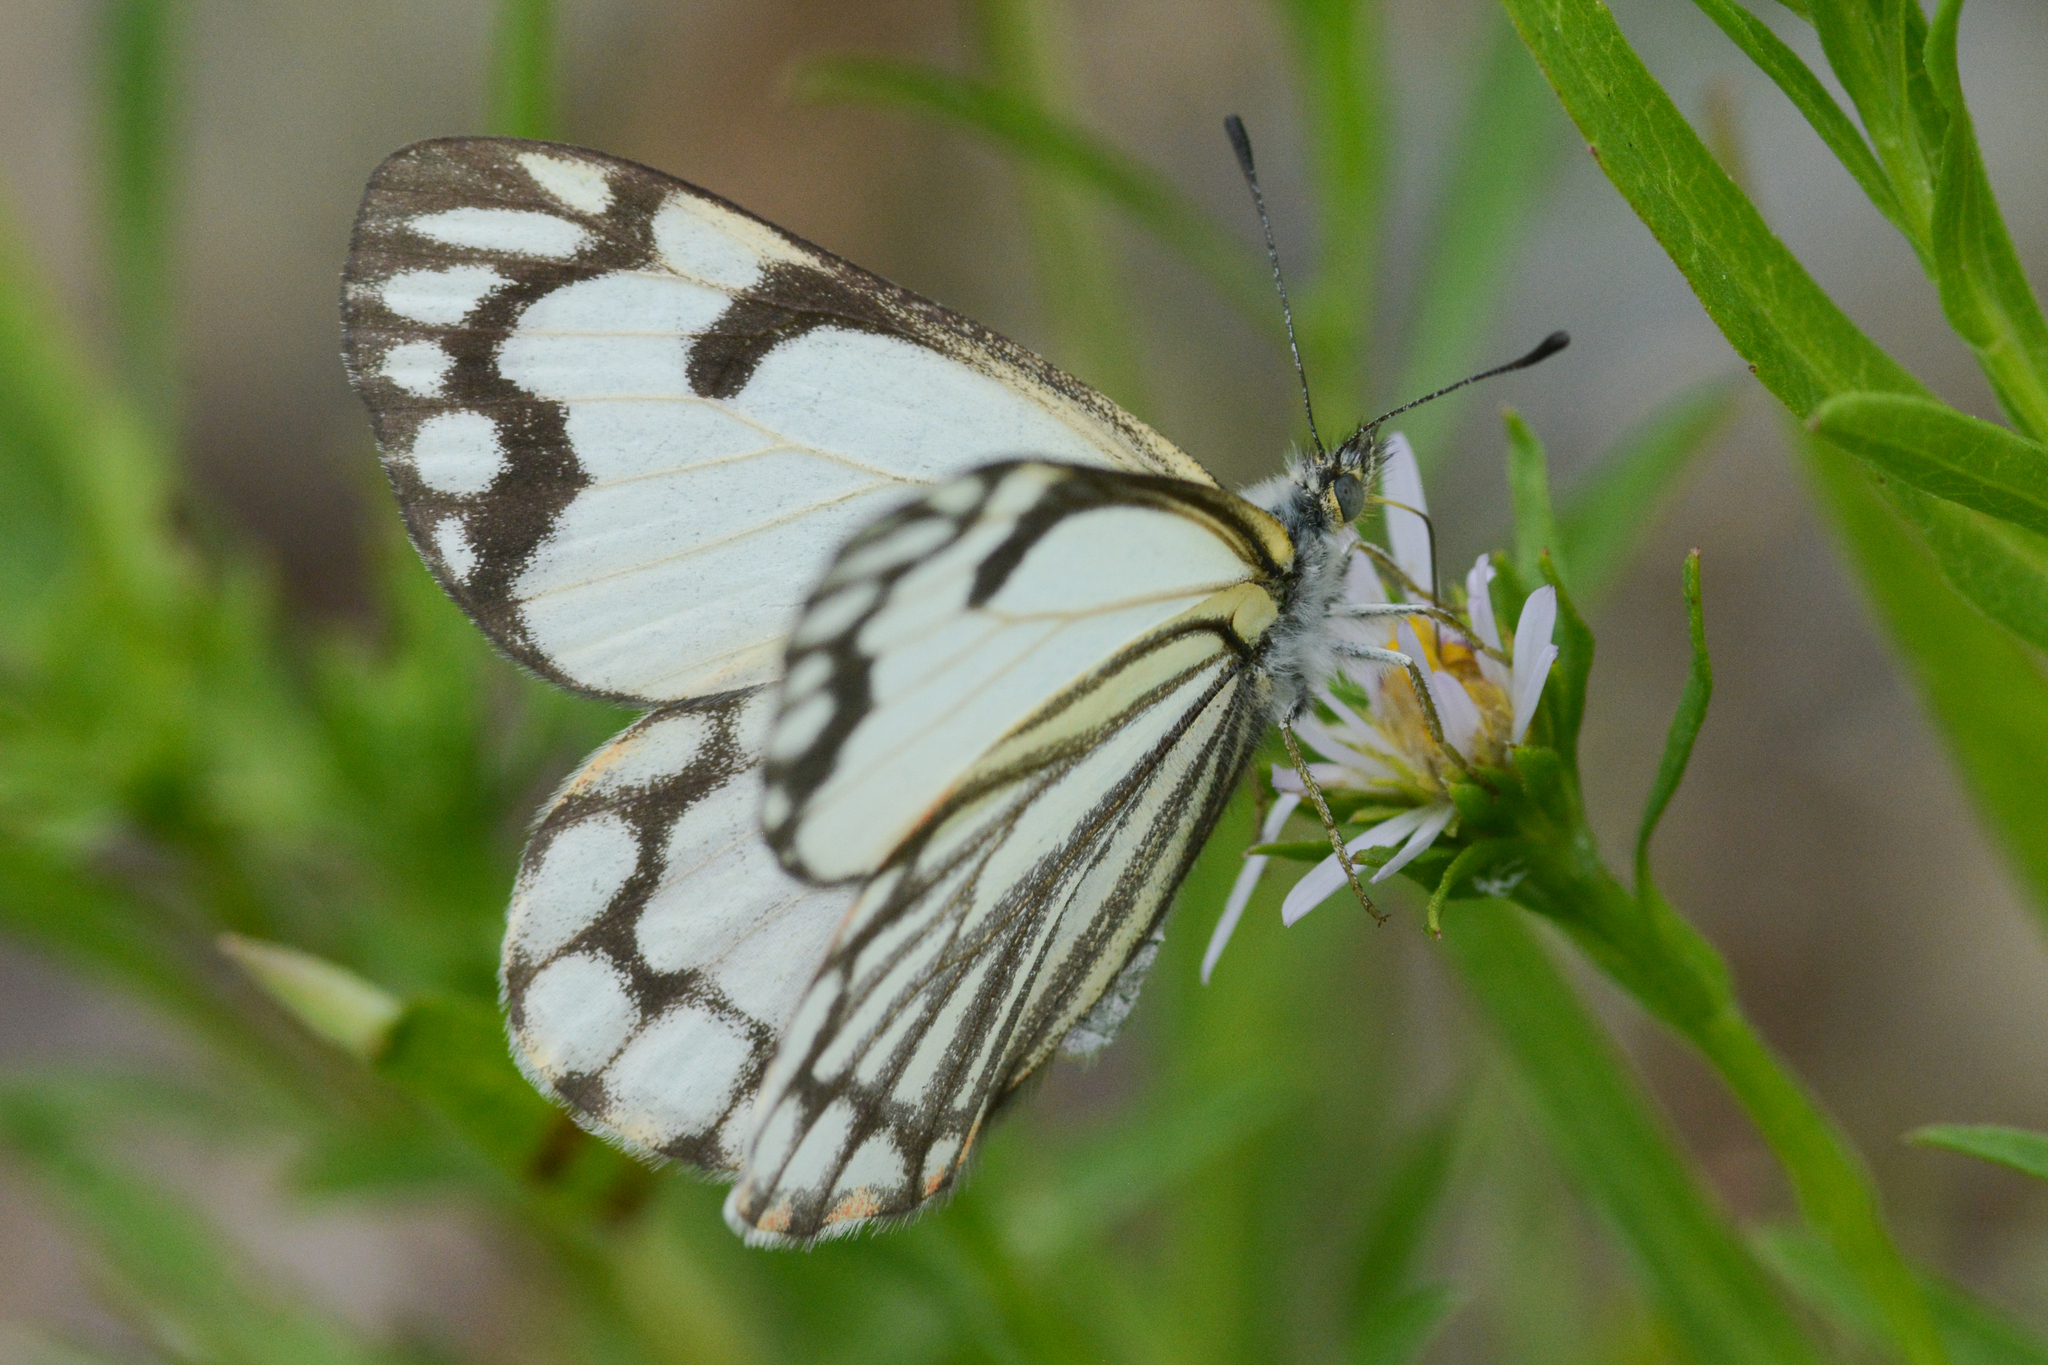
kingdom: Animalia
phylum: Arthropoda
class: Insecta
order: Lepidoptera
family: Pieridae
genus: Neophasia
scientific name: Neophasia menapia
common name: Pine white
